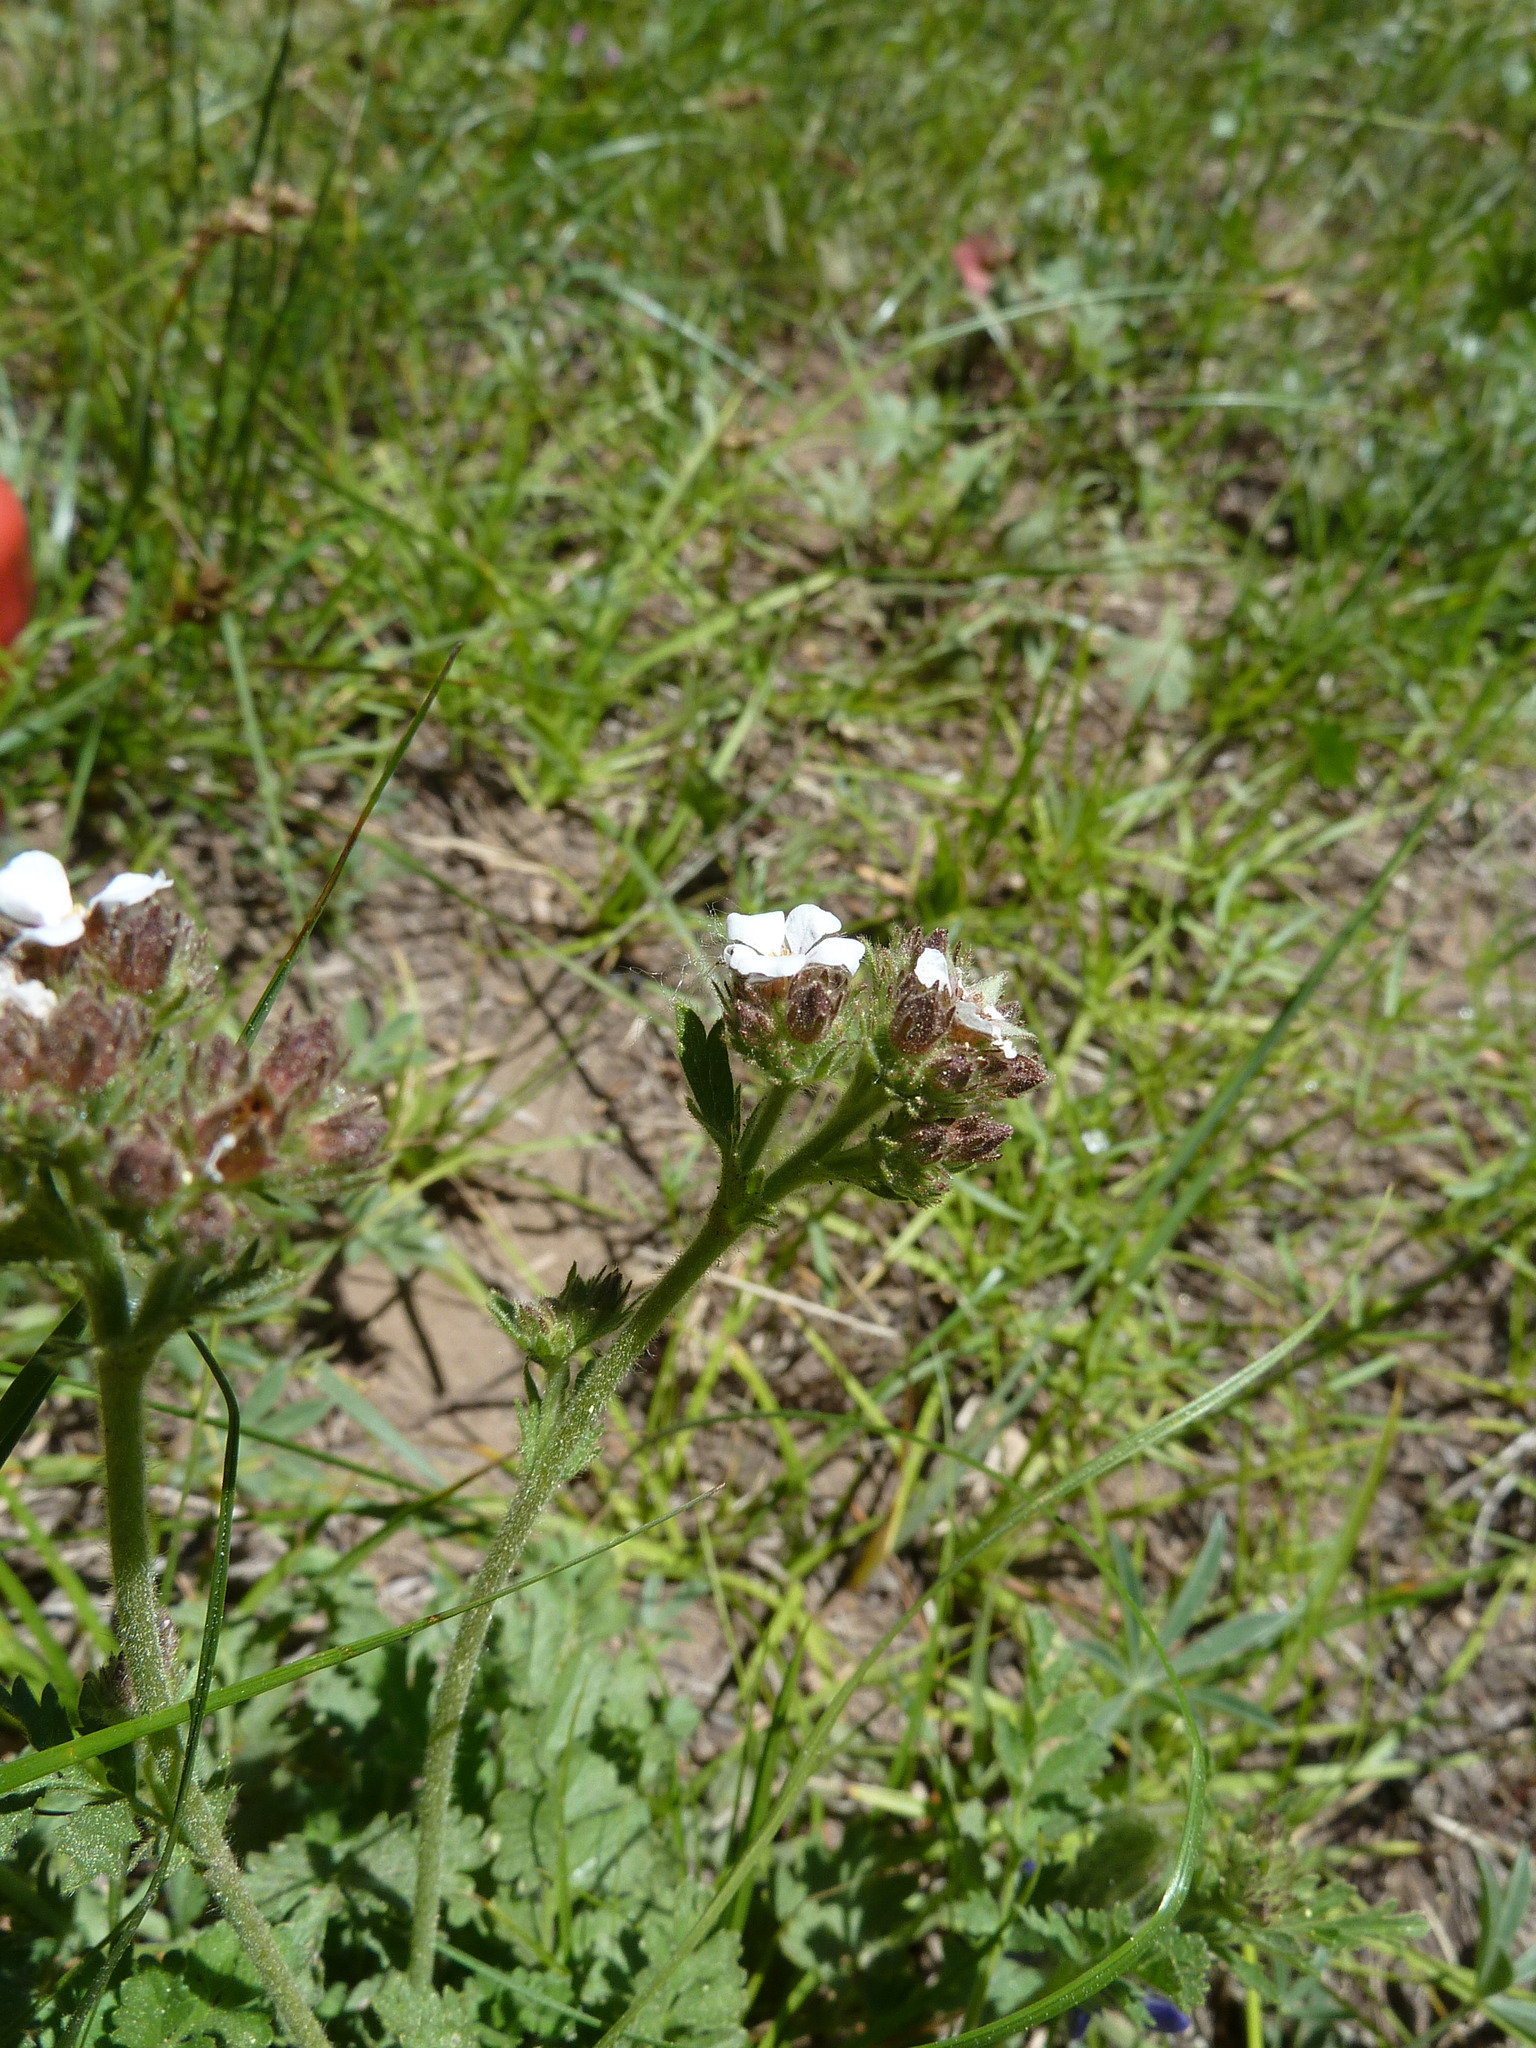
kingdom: Plantae
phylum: Tracheophyta
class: Magnoliopsida
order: Rosales
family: Rosaceae
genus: Potentilla
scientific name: Potentilla douglasii
